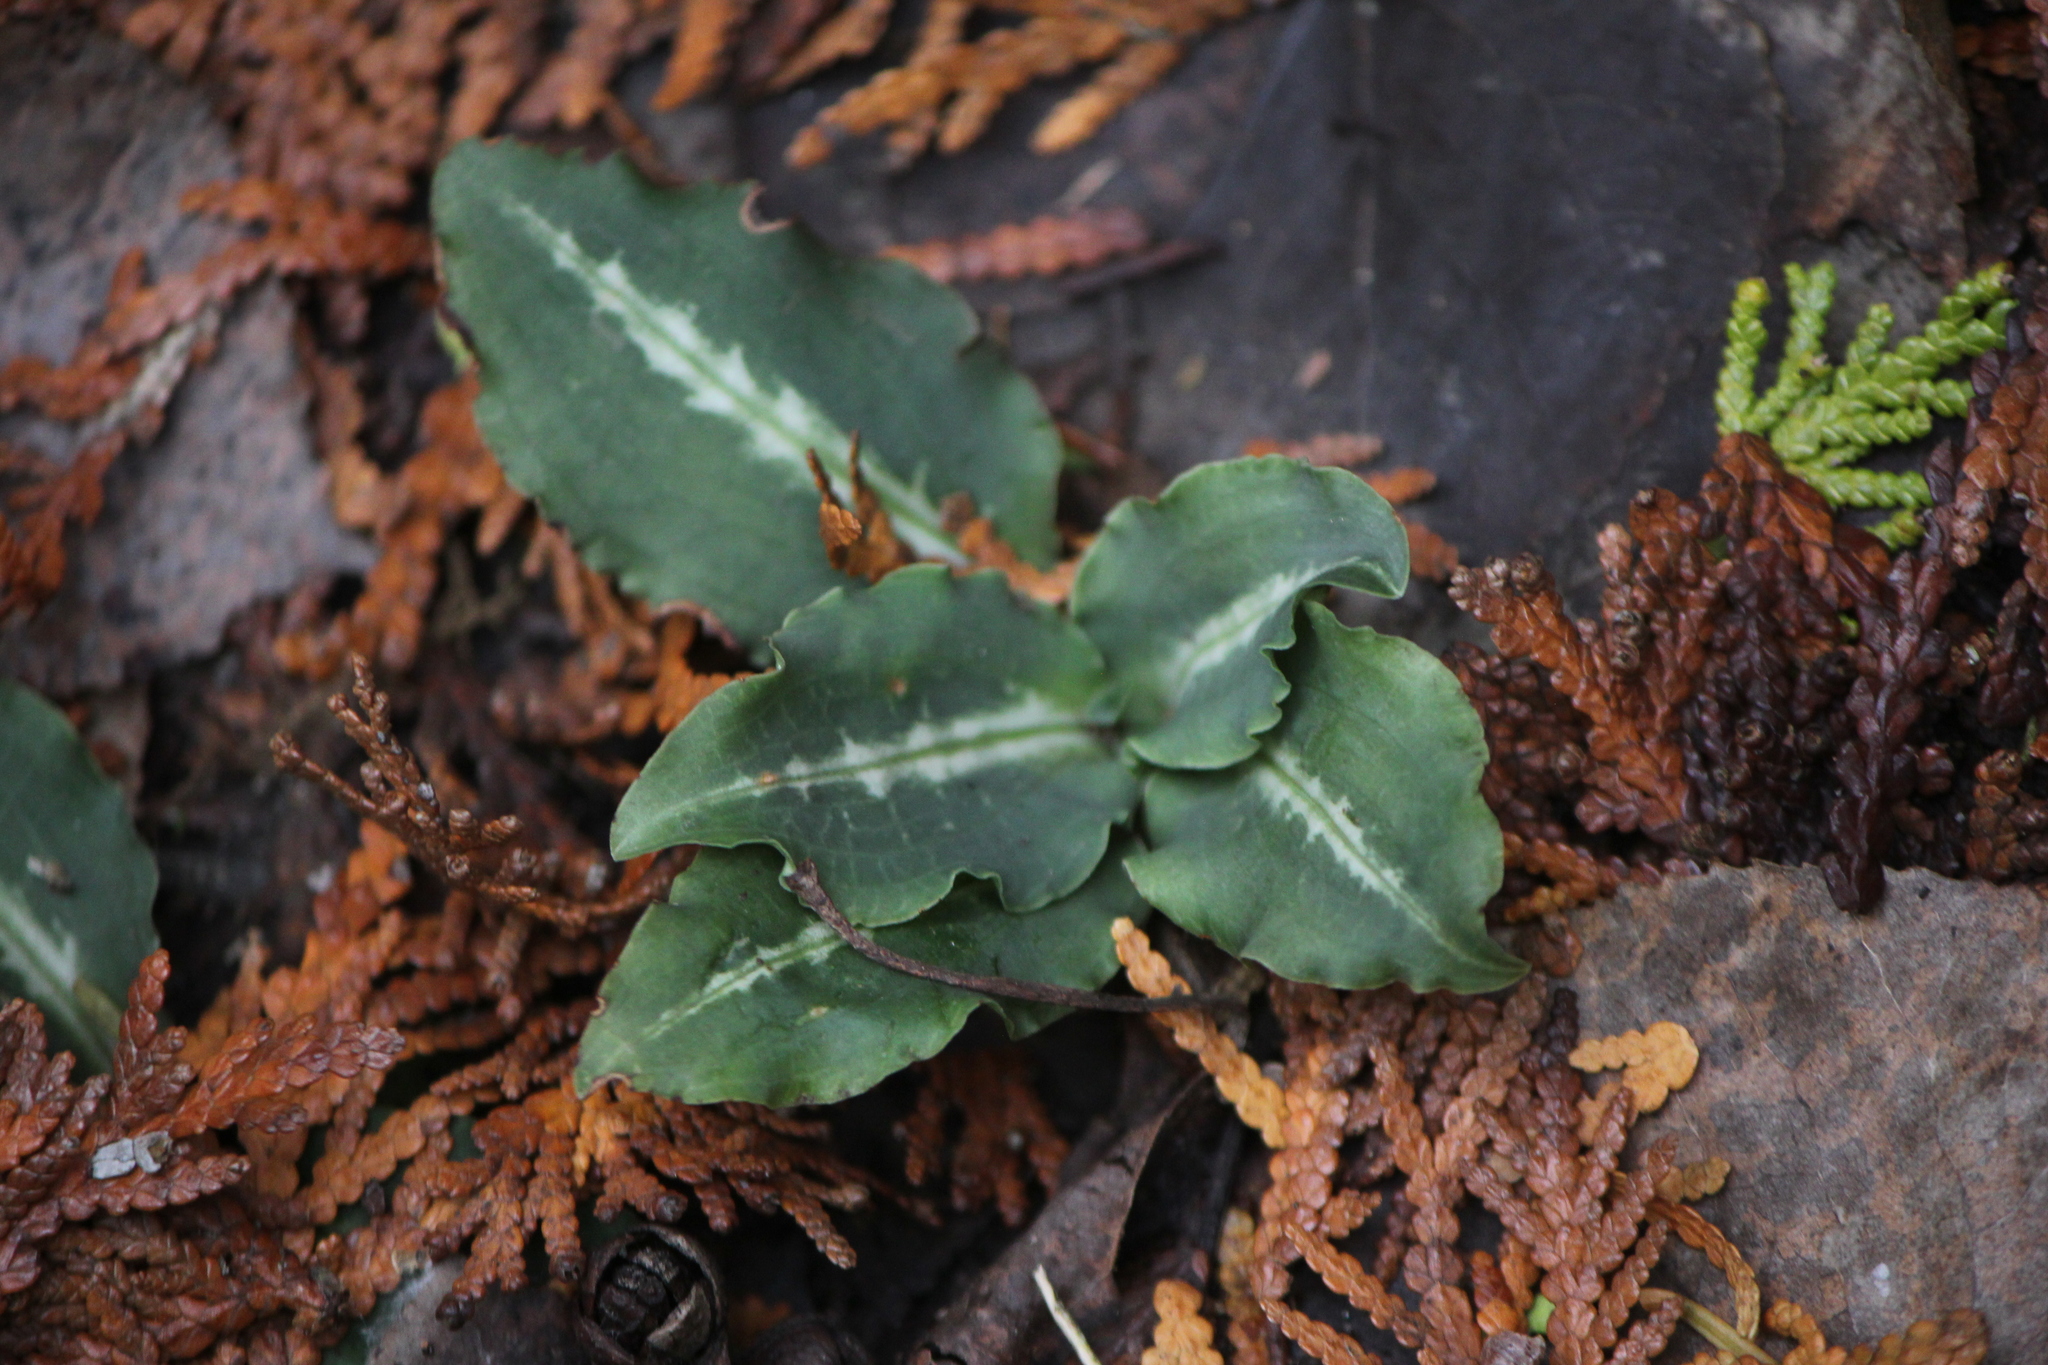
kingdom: Plantae
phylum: Tracheophyta
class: Liliopsida
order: Asparagales
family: Orchidaceae
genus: Goodyera
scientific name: Goodyera oblongifolia
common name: Giant rattlesnake-plantain
